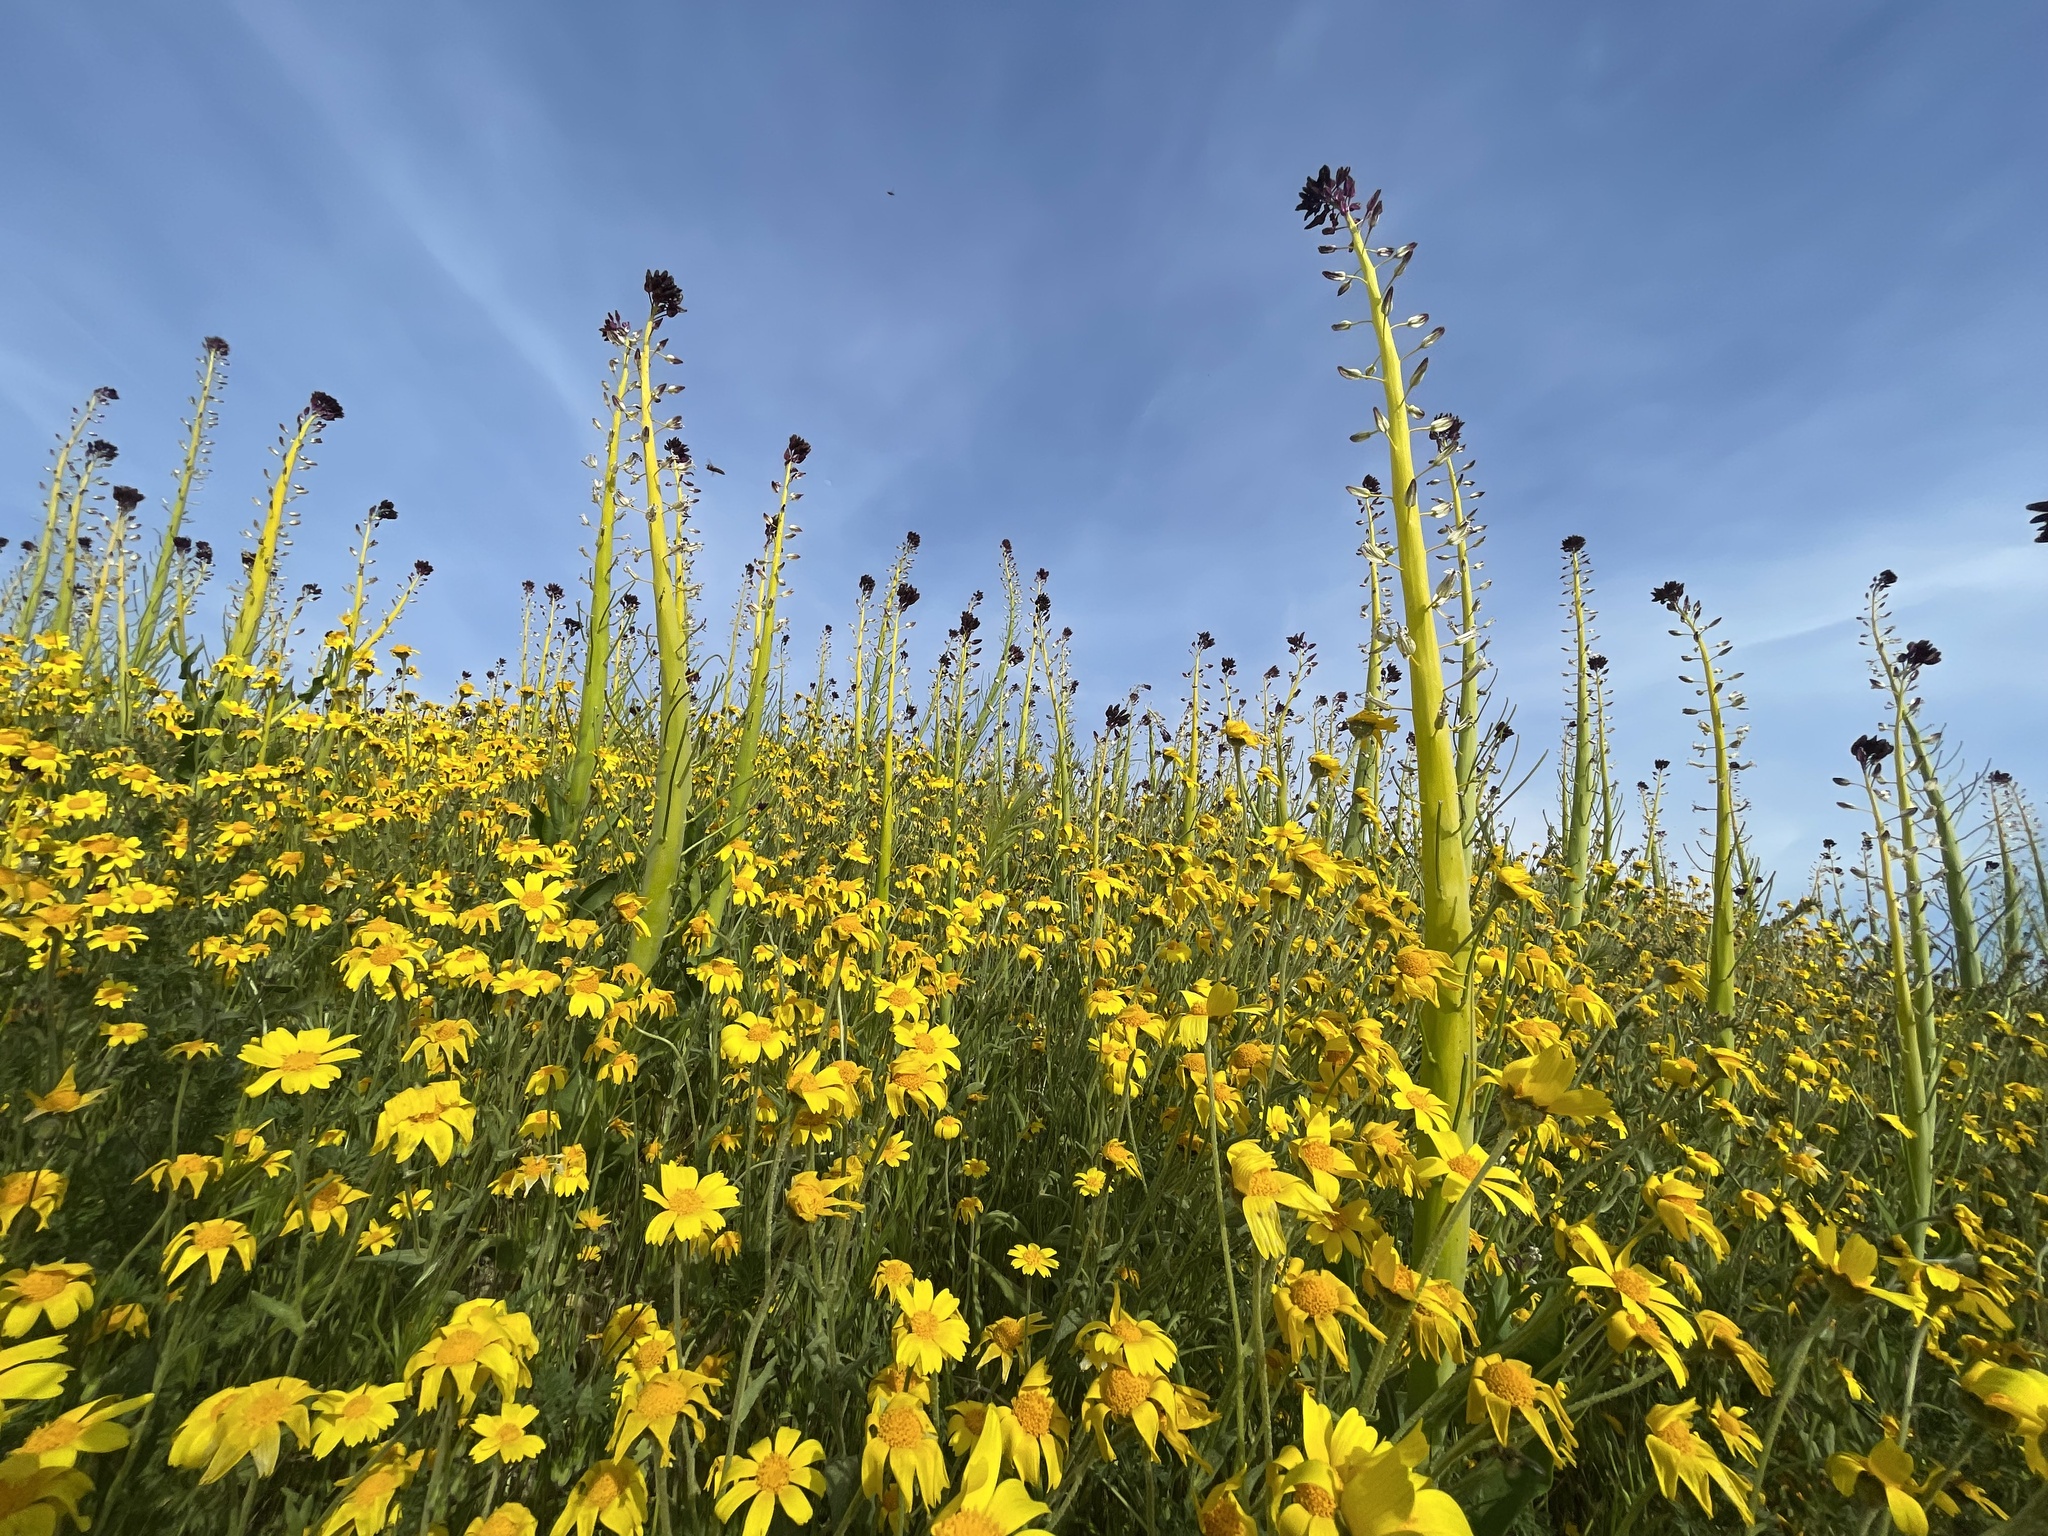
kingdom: Plantae
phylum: Tracheophyta
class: Magnoliopsida
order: Brassicales
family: Brassicaceae
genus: Streptanthus
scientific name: Streptanthus inflatus
